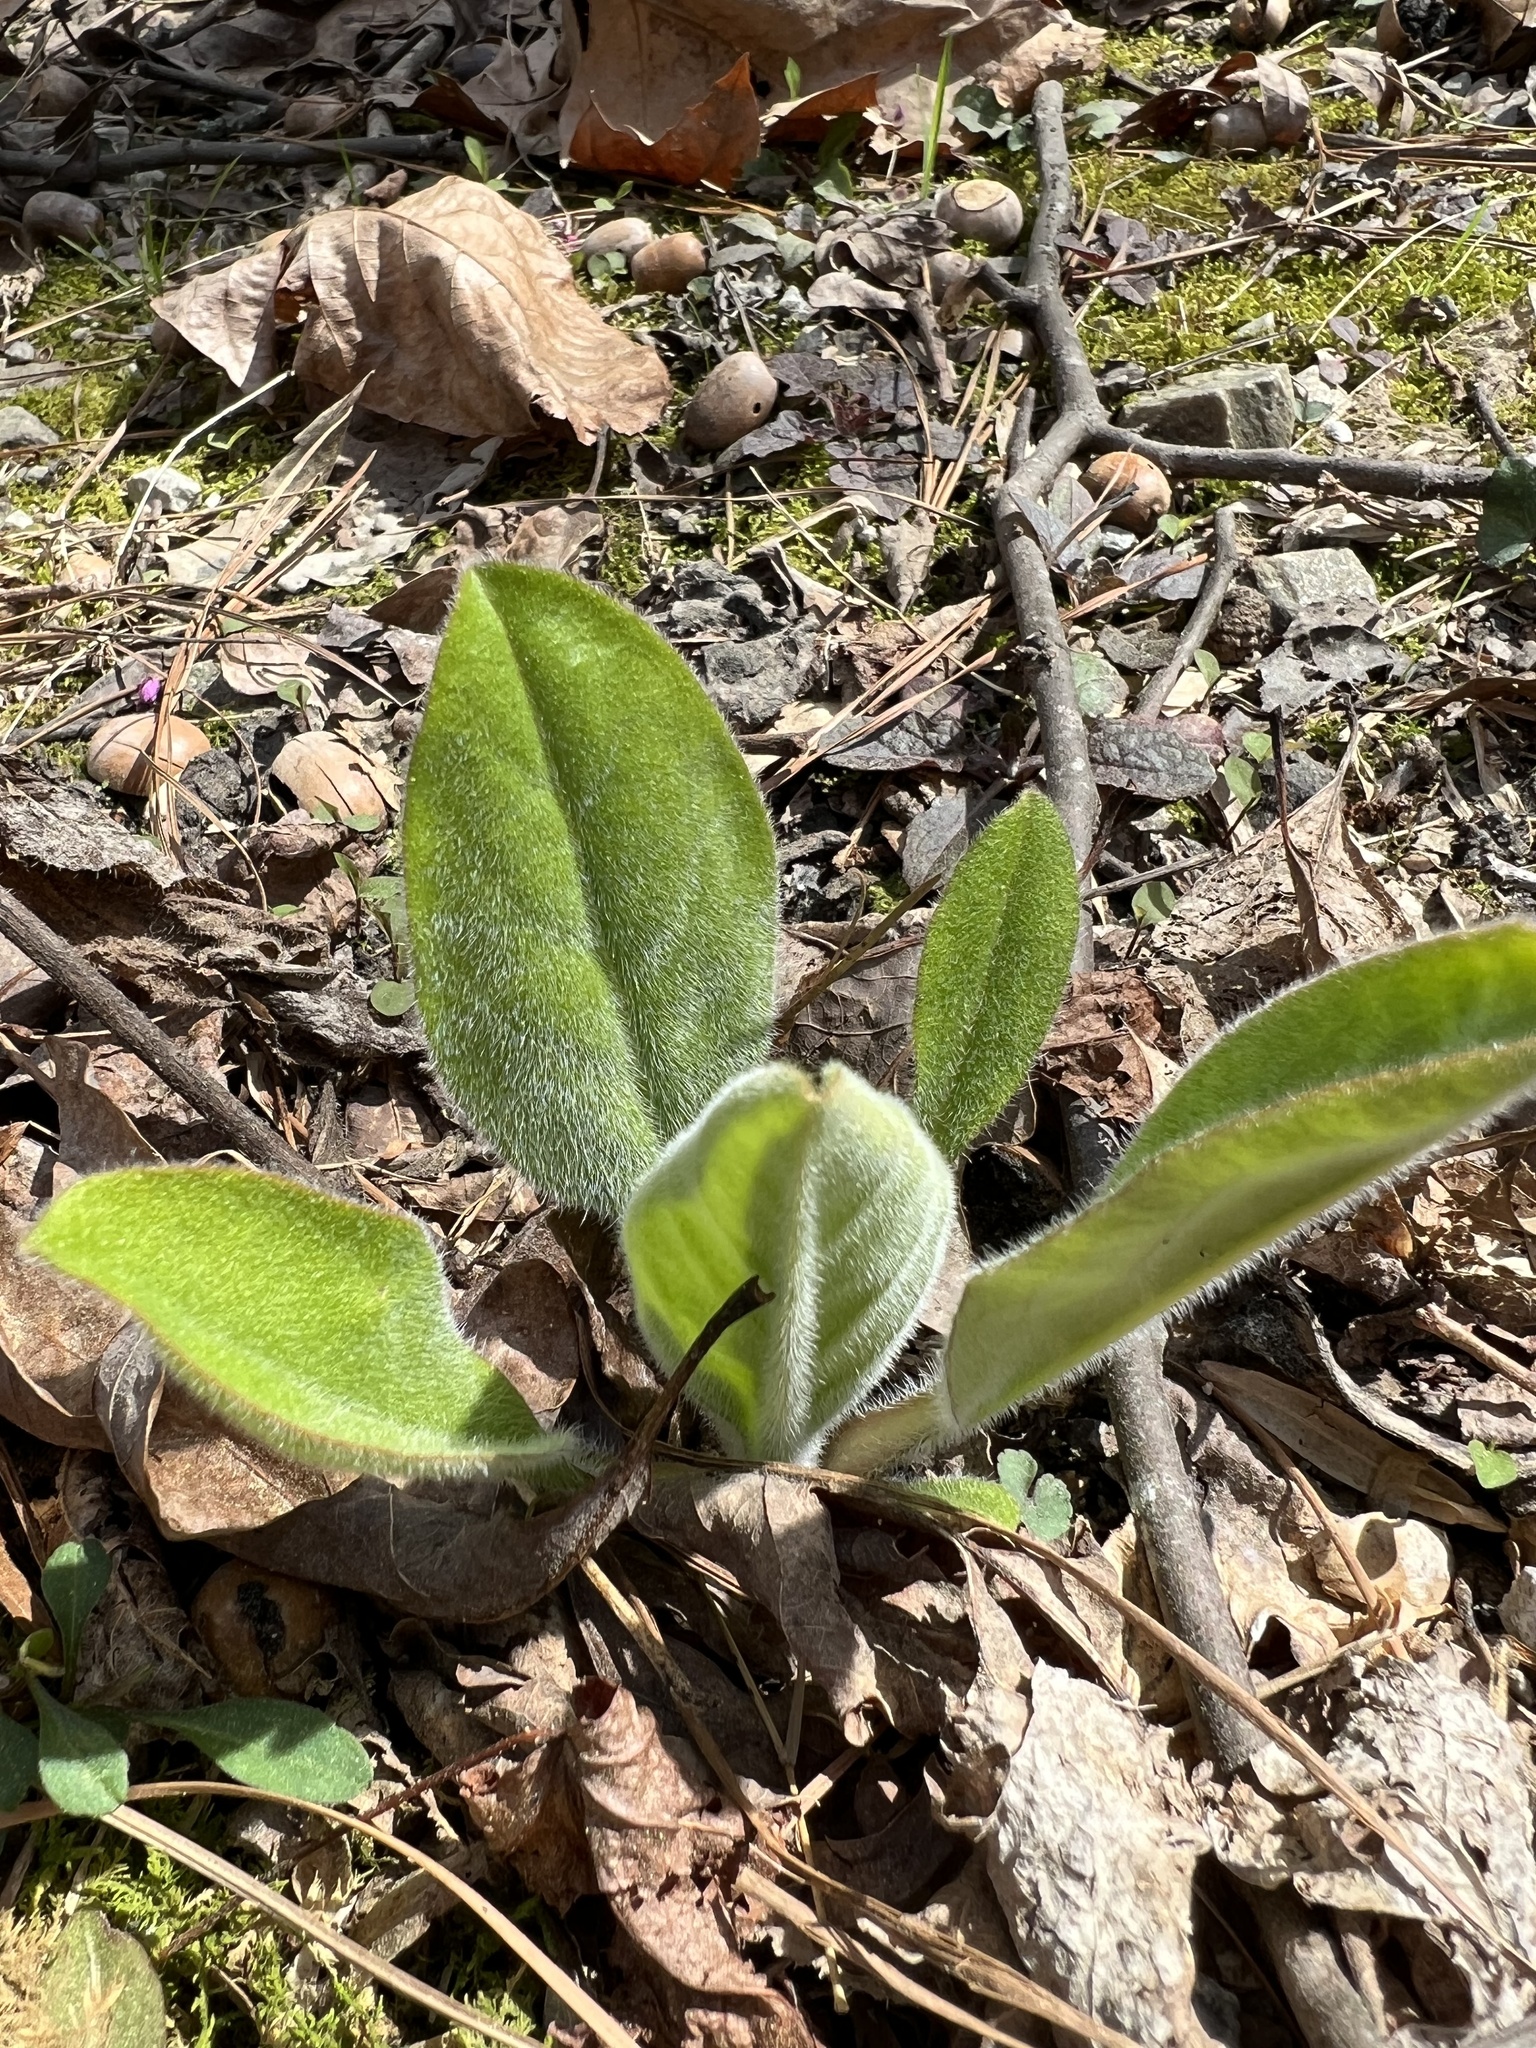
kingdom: Plantae
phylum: Tracheophyta
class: Magnoliopsida
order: Boraginales
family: Boraginaceae
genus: Andersonglossum
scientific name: Andersonglossum virginianum
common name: Wild comfrey
